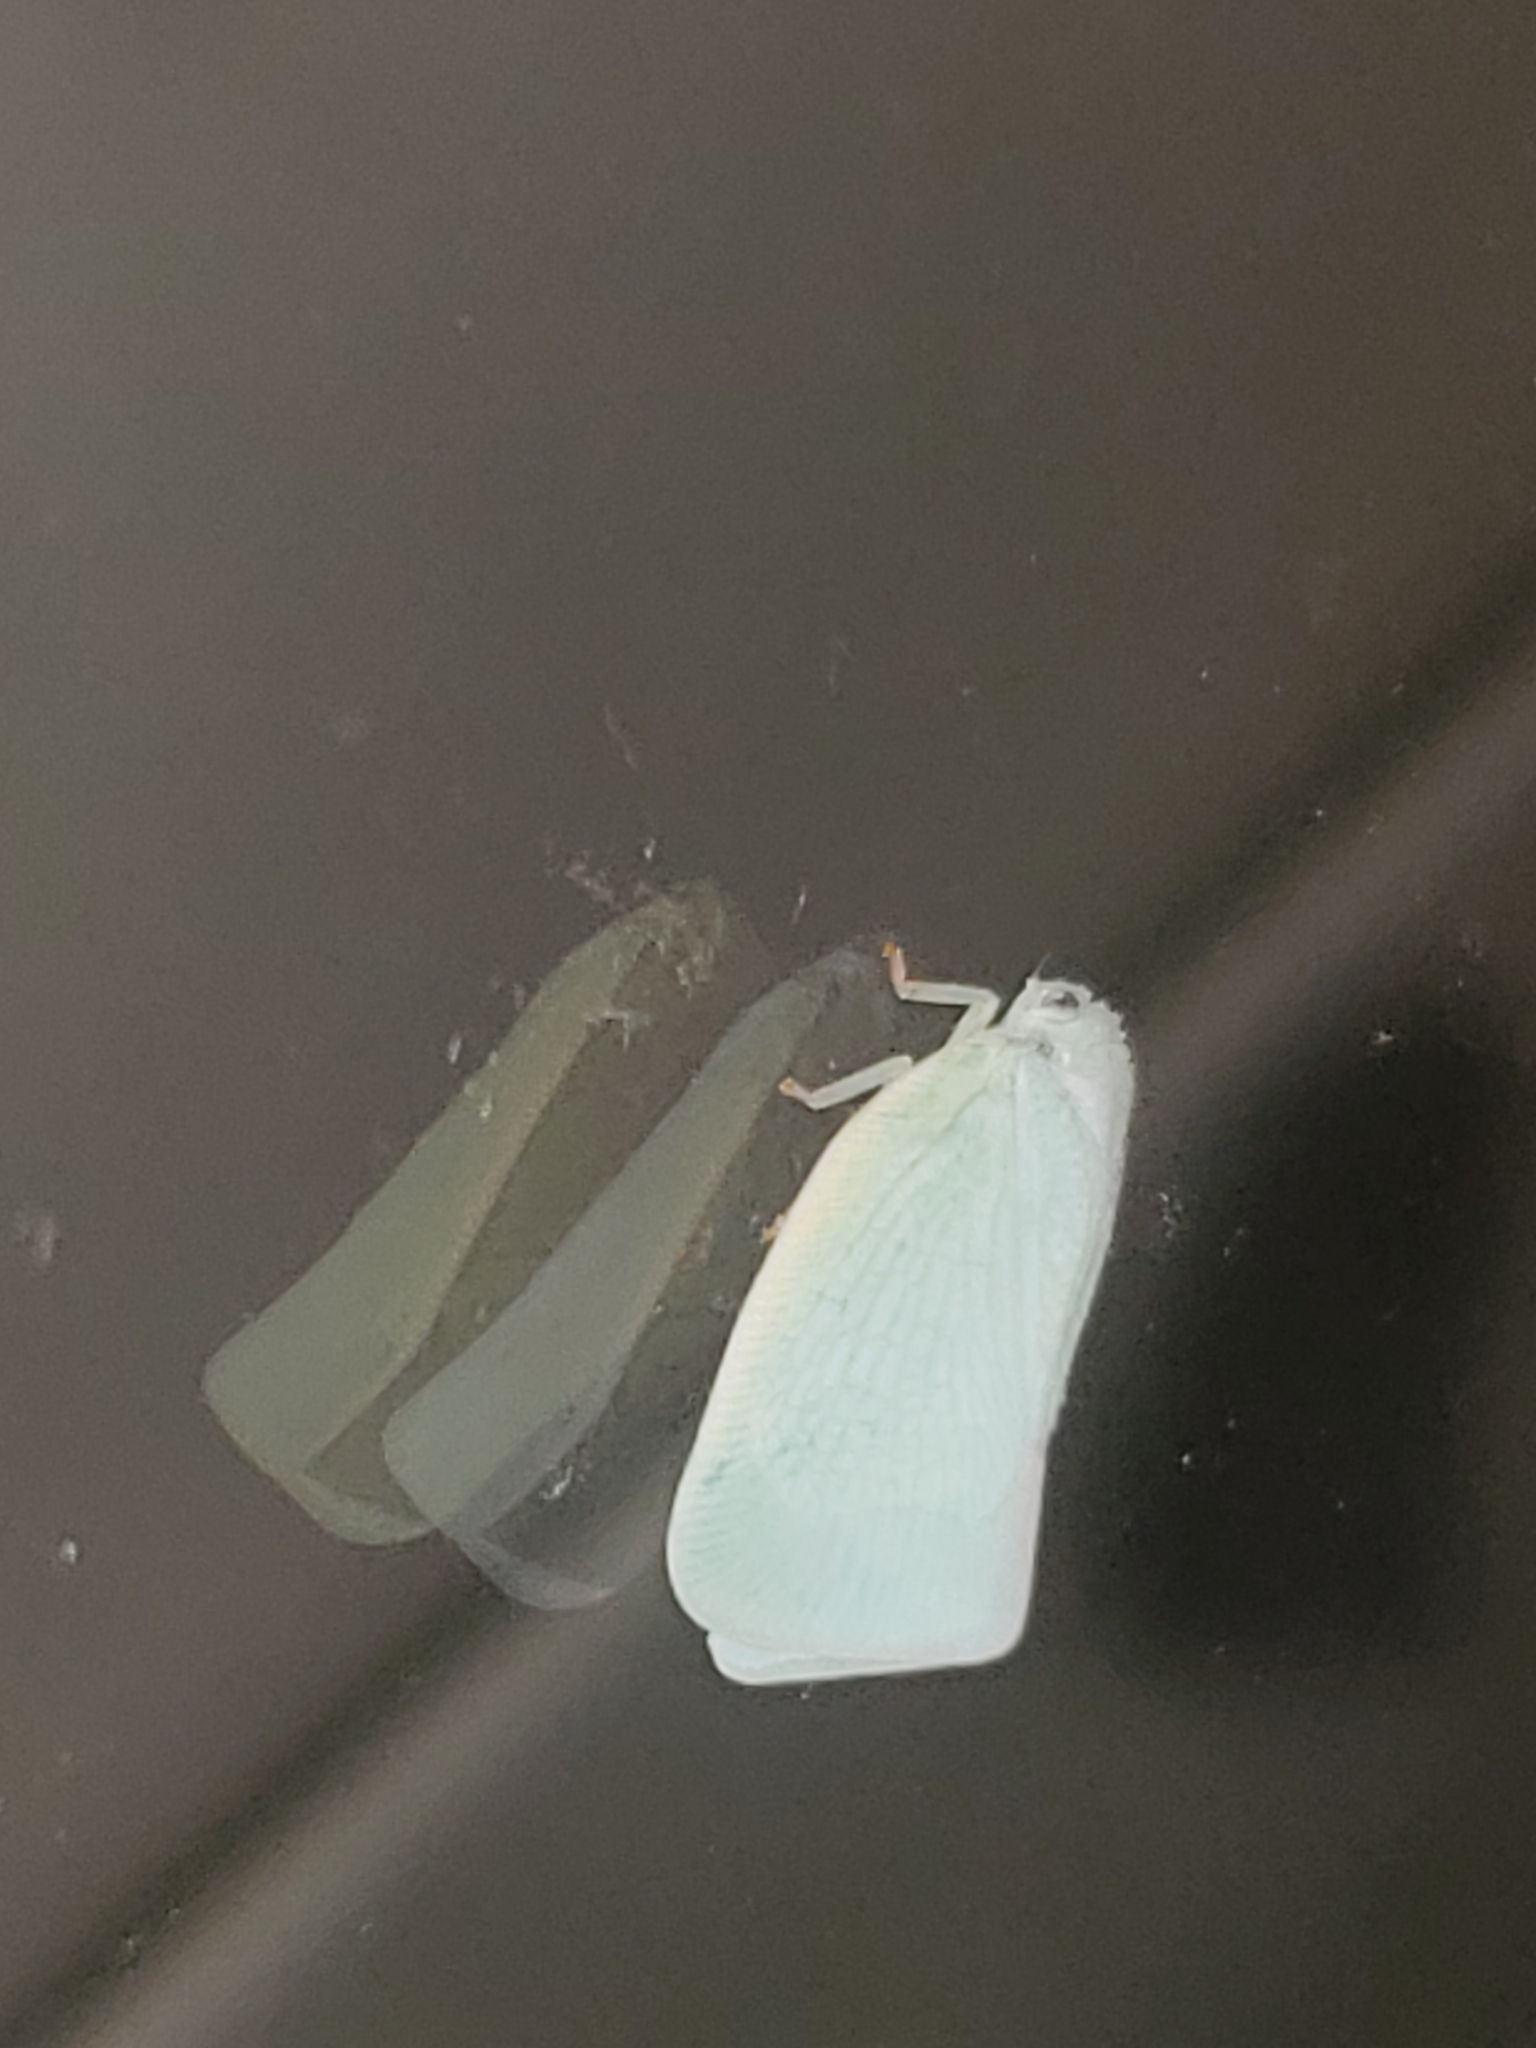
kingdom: Animalia
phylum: Arthropoda
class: Insecta
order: Hemiptera
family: Flatidae
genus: Flatormenis
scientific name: Flatormenis proxima
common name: Northern flatid planthopper
